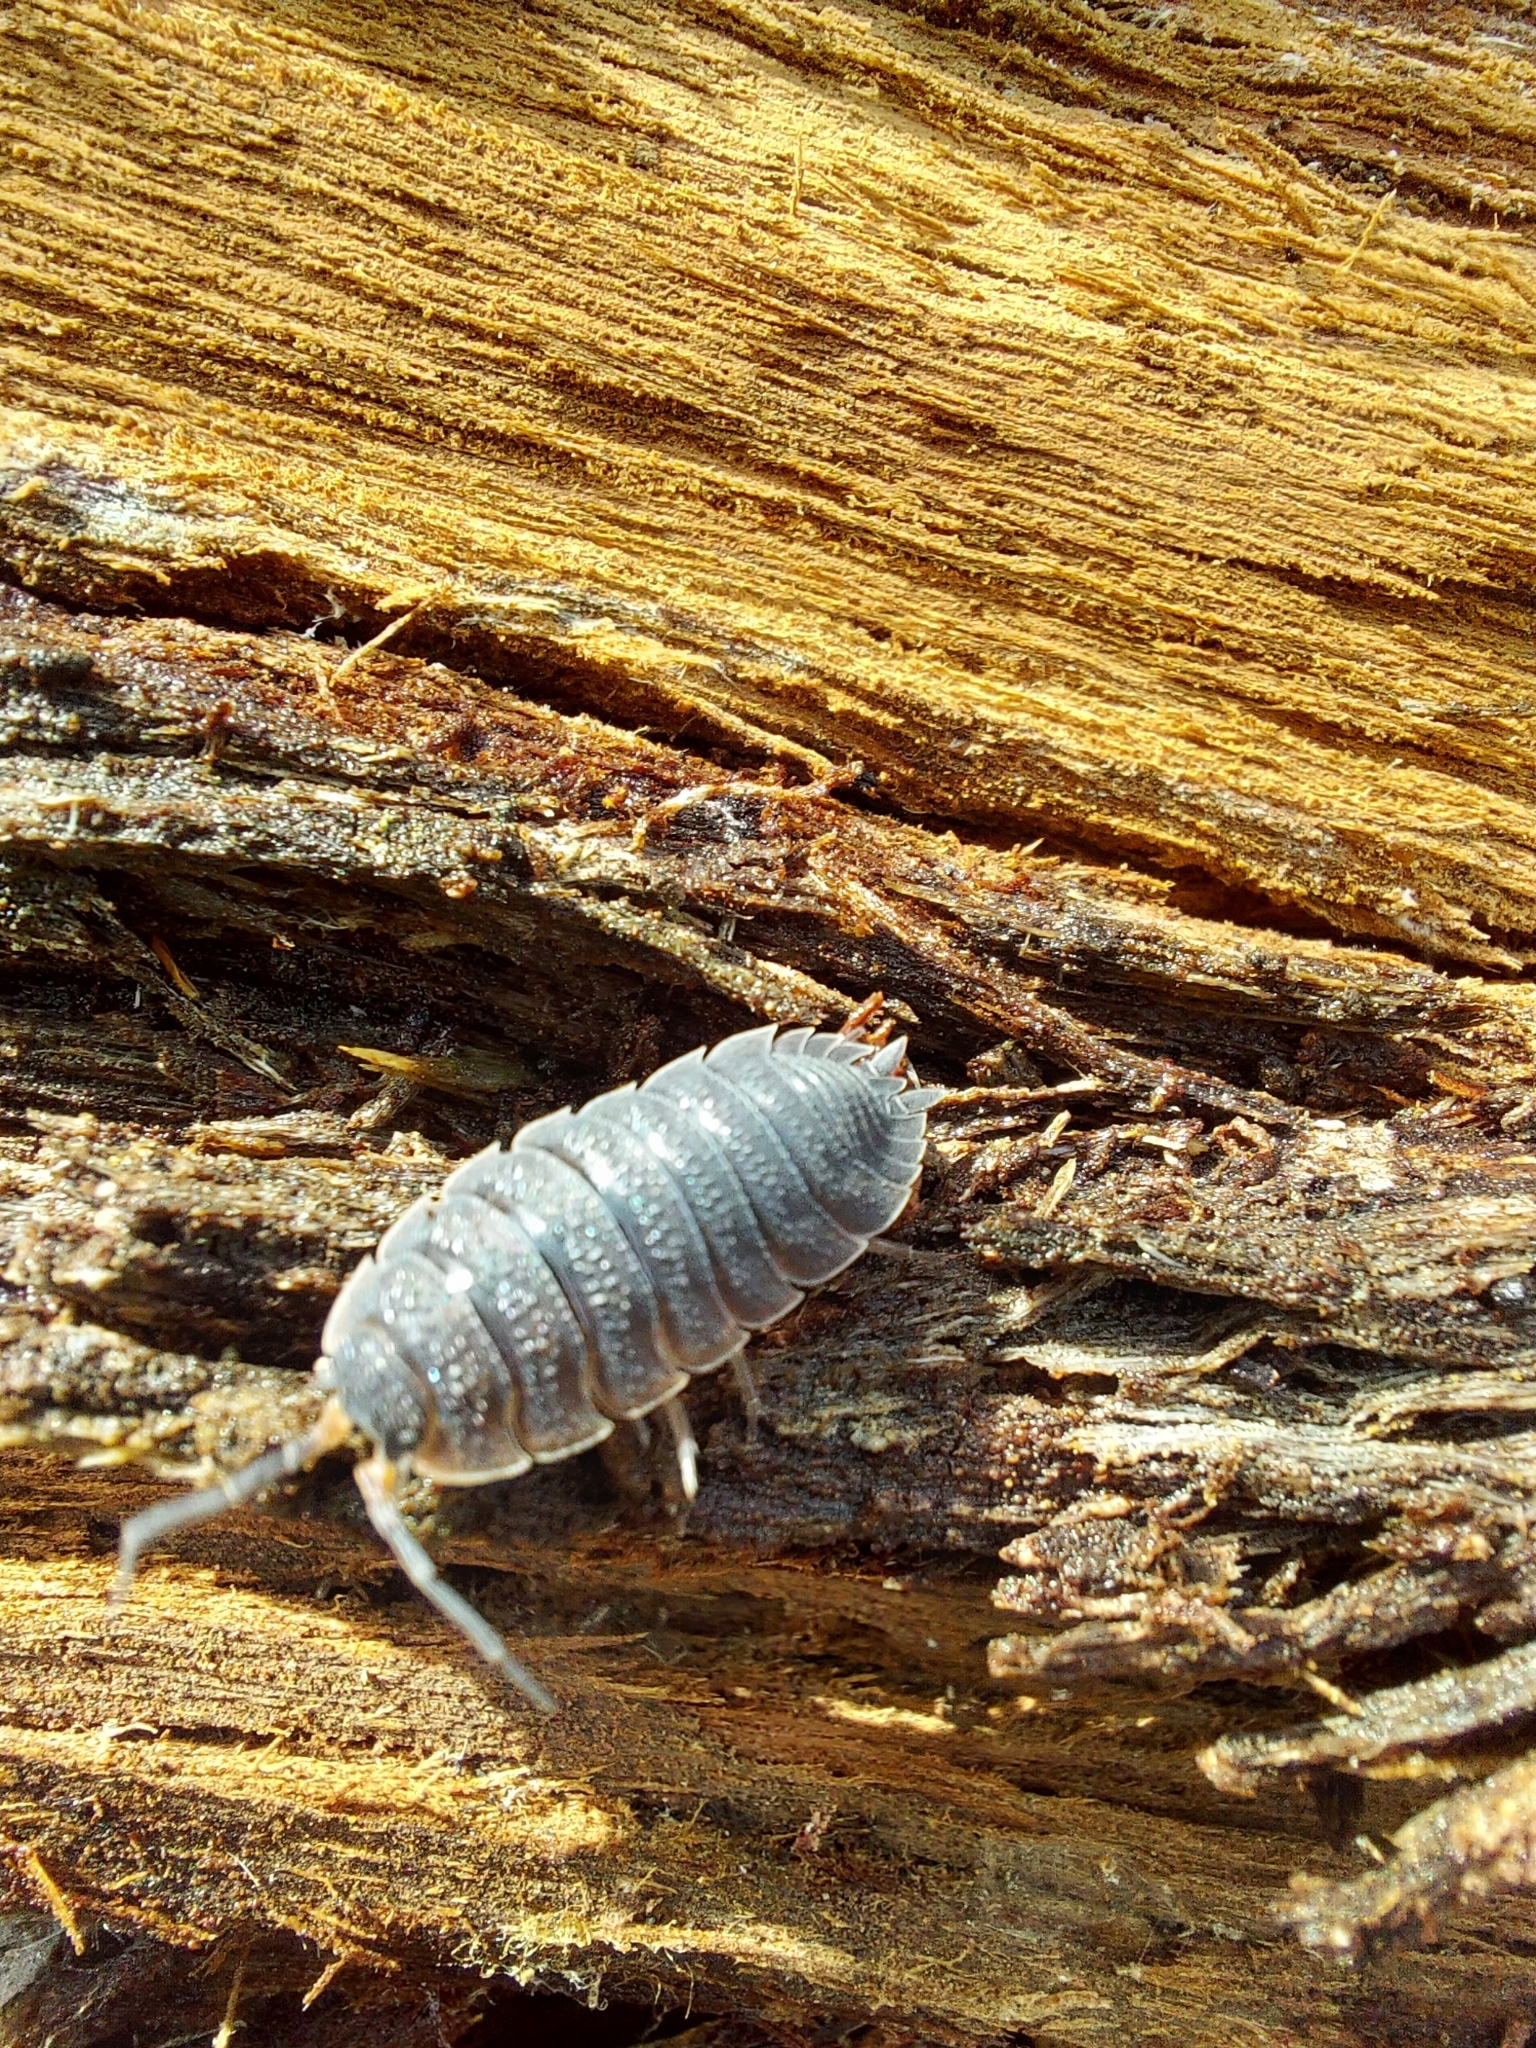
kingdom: Animalia
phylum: Arthropoda
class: Malacostraca
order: Isopoda
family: Porcellionidae
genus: Porcellio
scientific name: Porcellio scaber
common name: Common rough woodlouse
